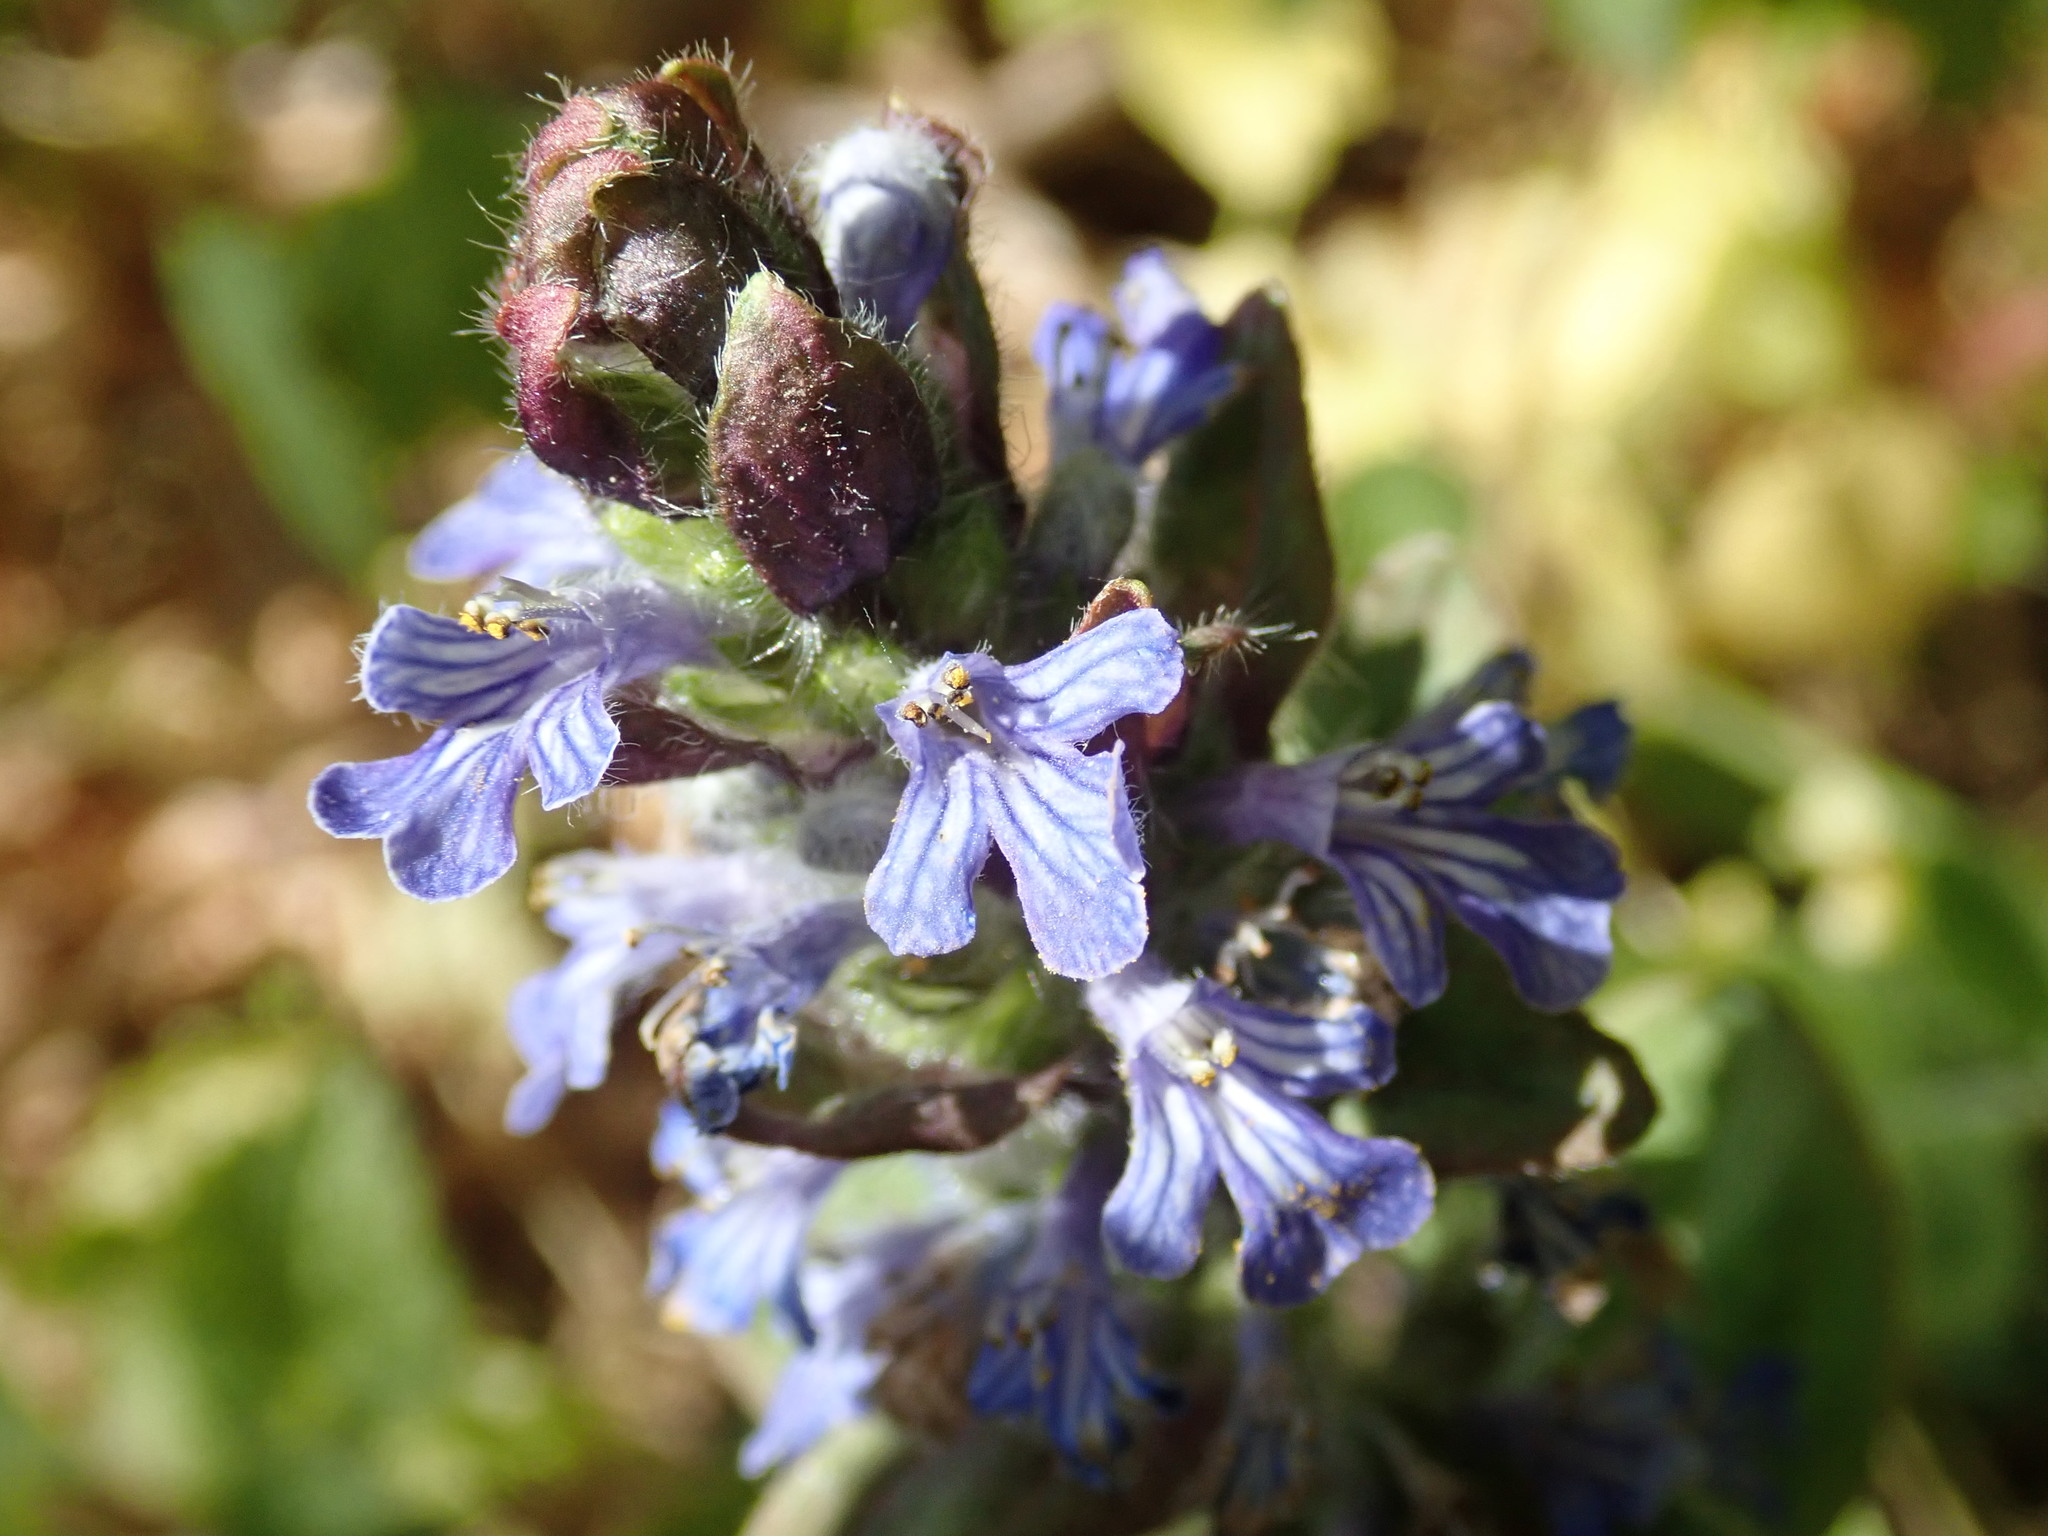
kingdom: Plantae
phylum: Tracheophyta
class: Magnoliopsida
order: Lamiales
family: Lamiaceae
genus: Ajuga
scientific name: Ajuga reptans
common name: Bugle
